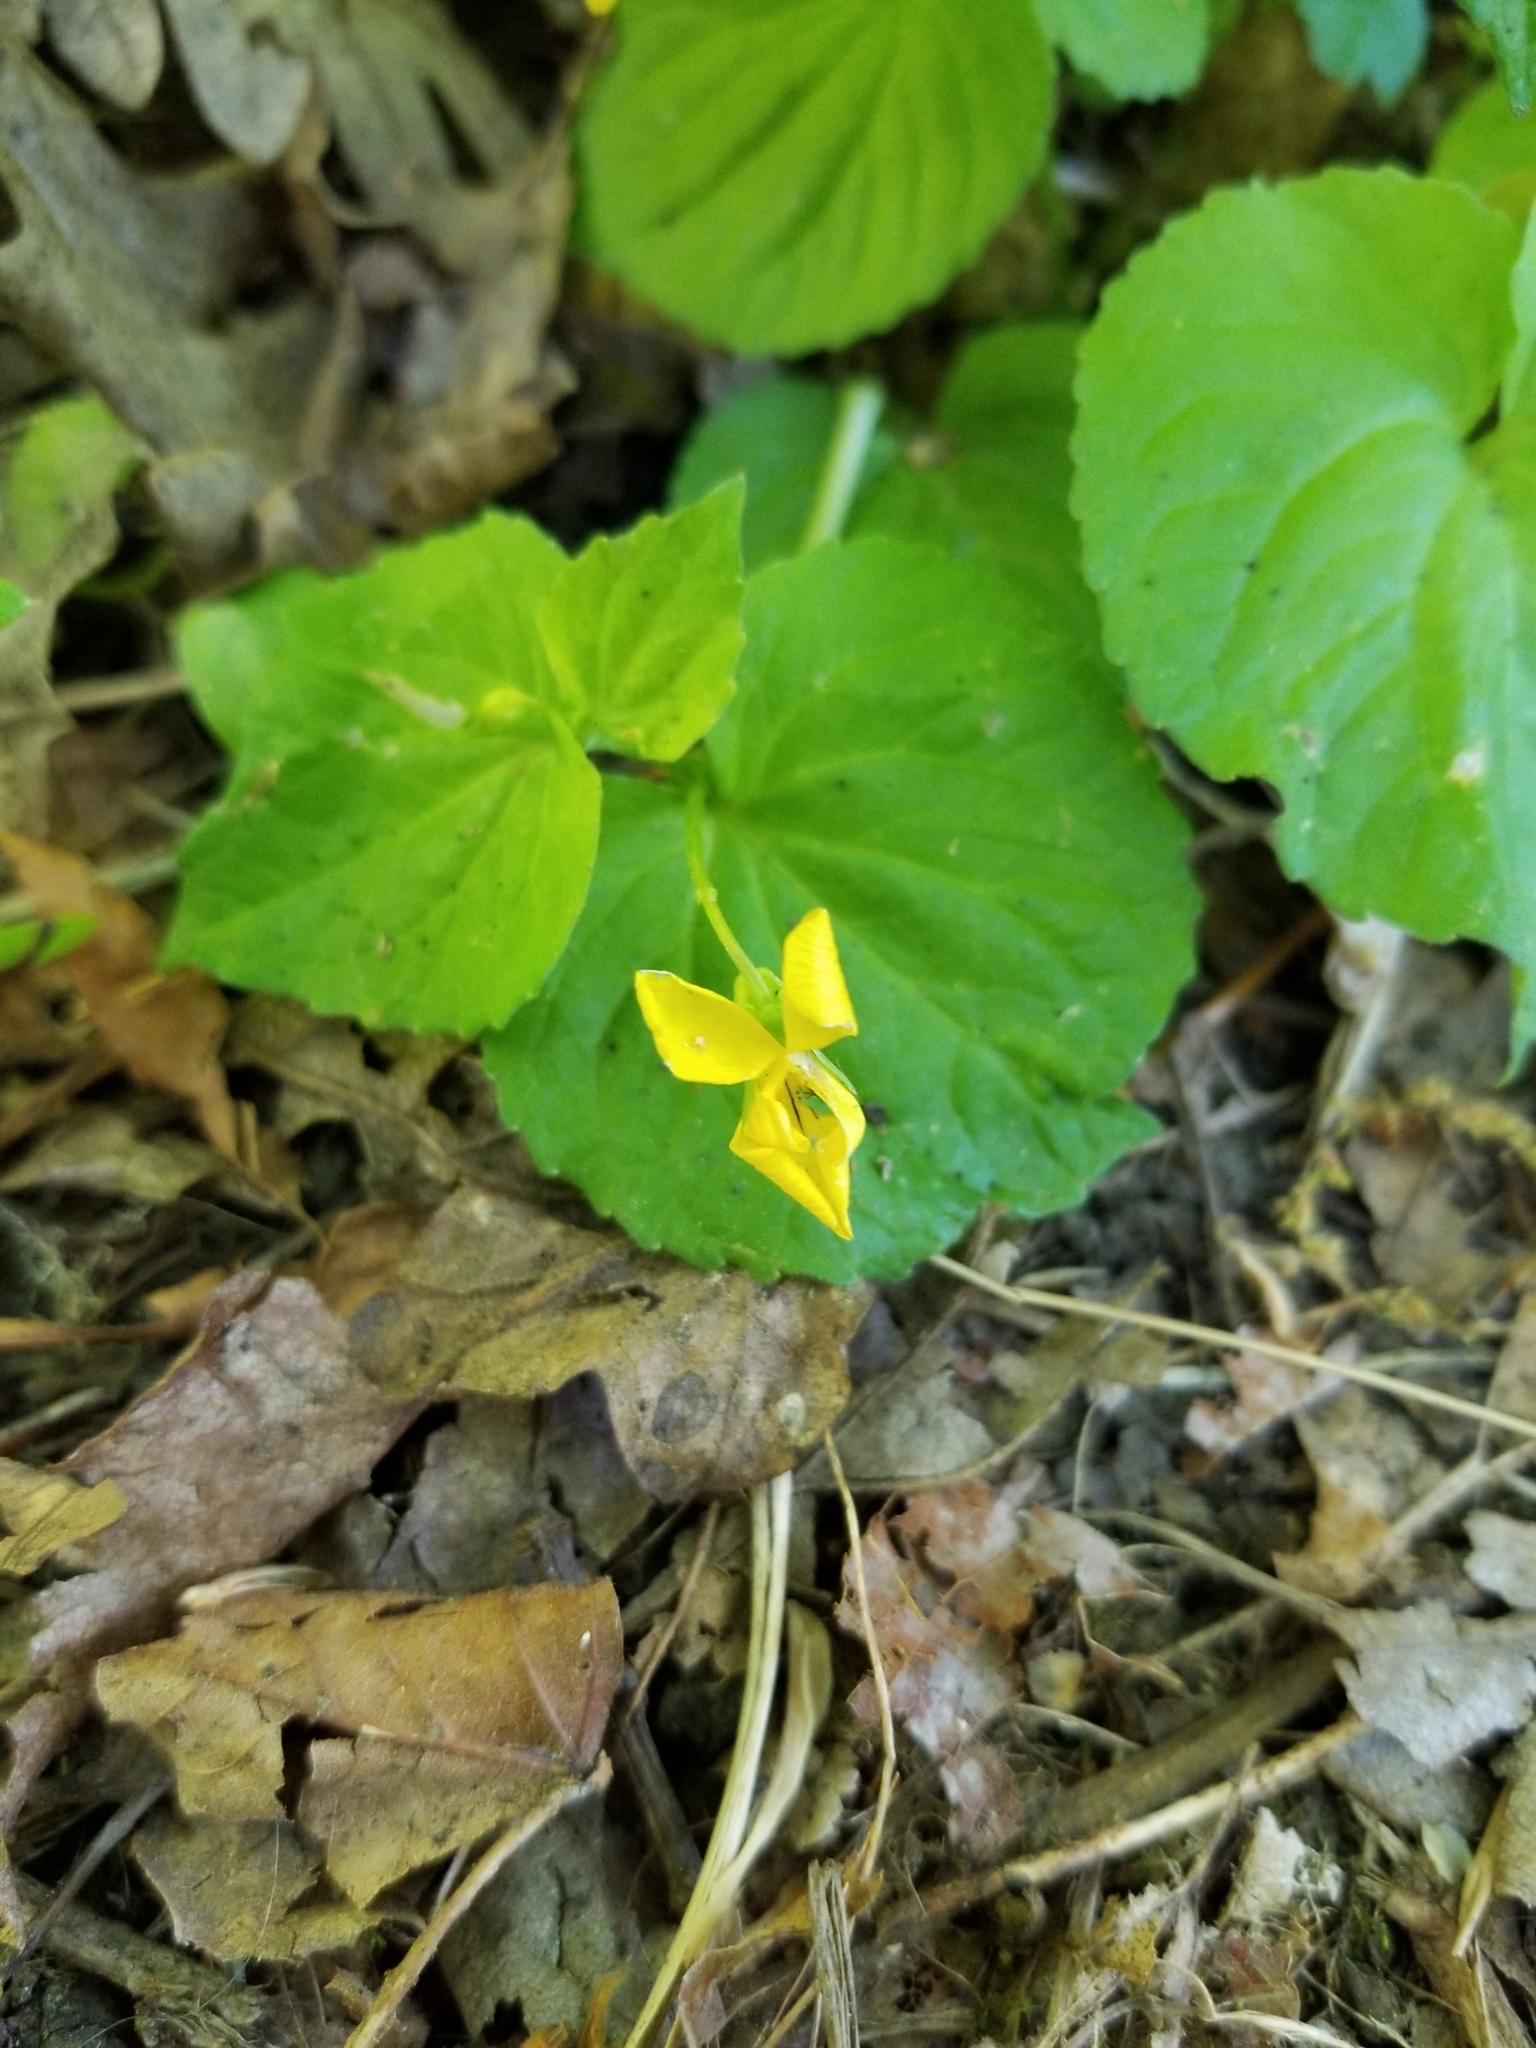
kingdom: Plantae
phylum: Tracheophyta
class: Magnoliopsida
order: Malpighiales
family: Violaceae
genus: Viola
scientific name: Viola glabella
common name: Stream violet
